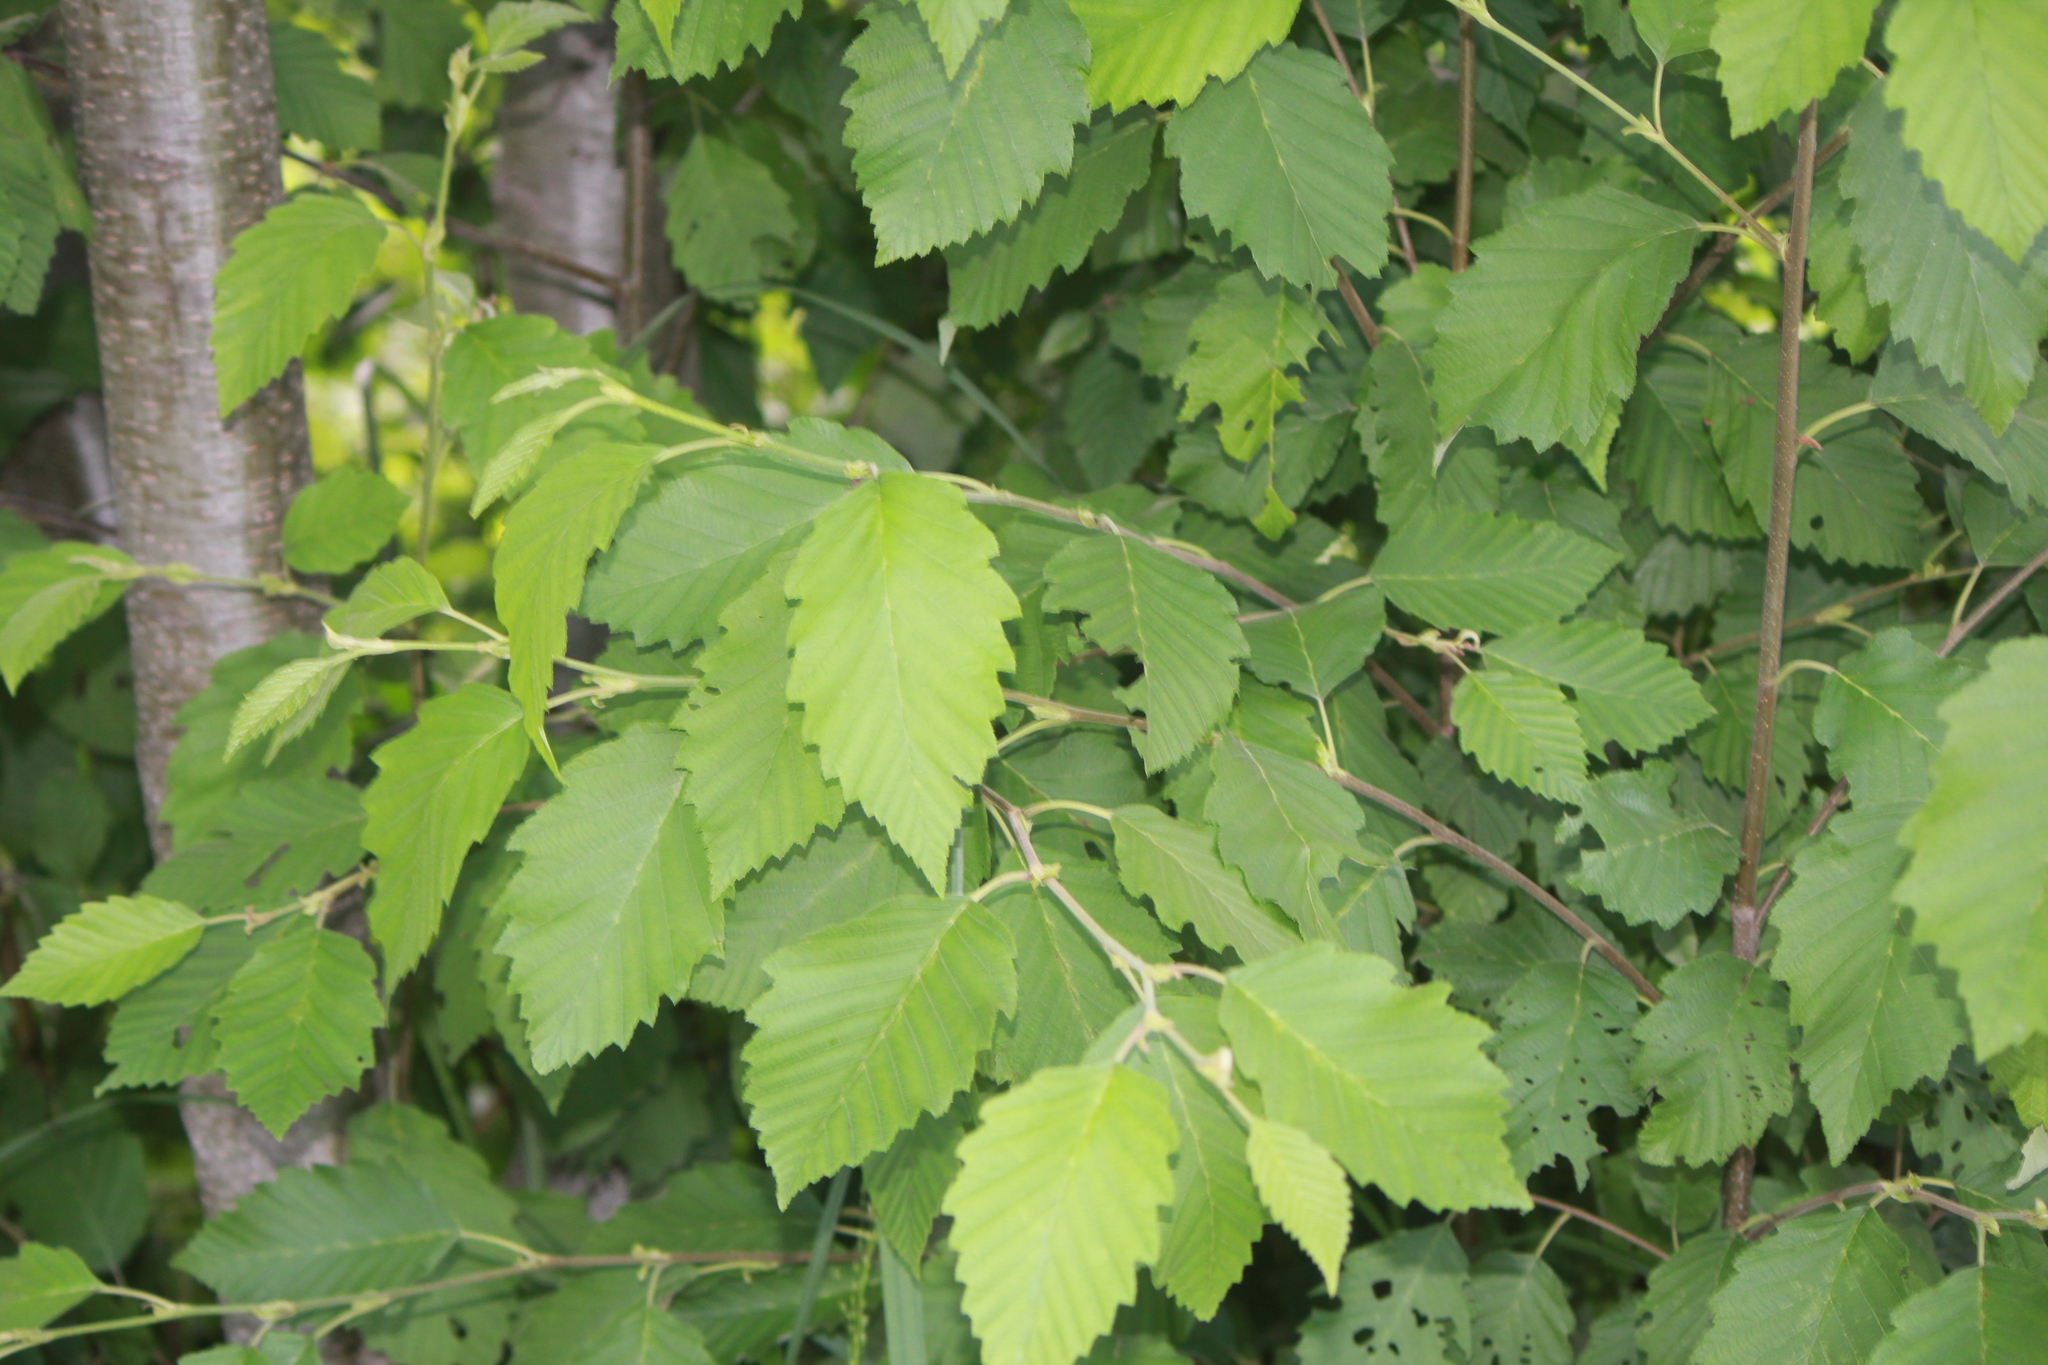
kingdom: Plantae
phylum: Tracheophyta
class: Magnoliopsida
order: Fagales
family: Betulaceae
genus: Betula
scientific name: Betula nigra
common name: Black birch
